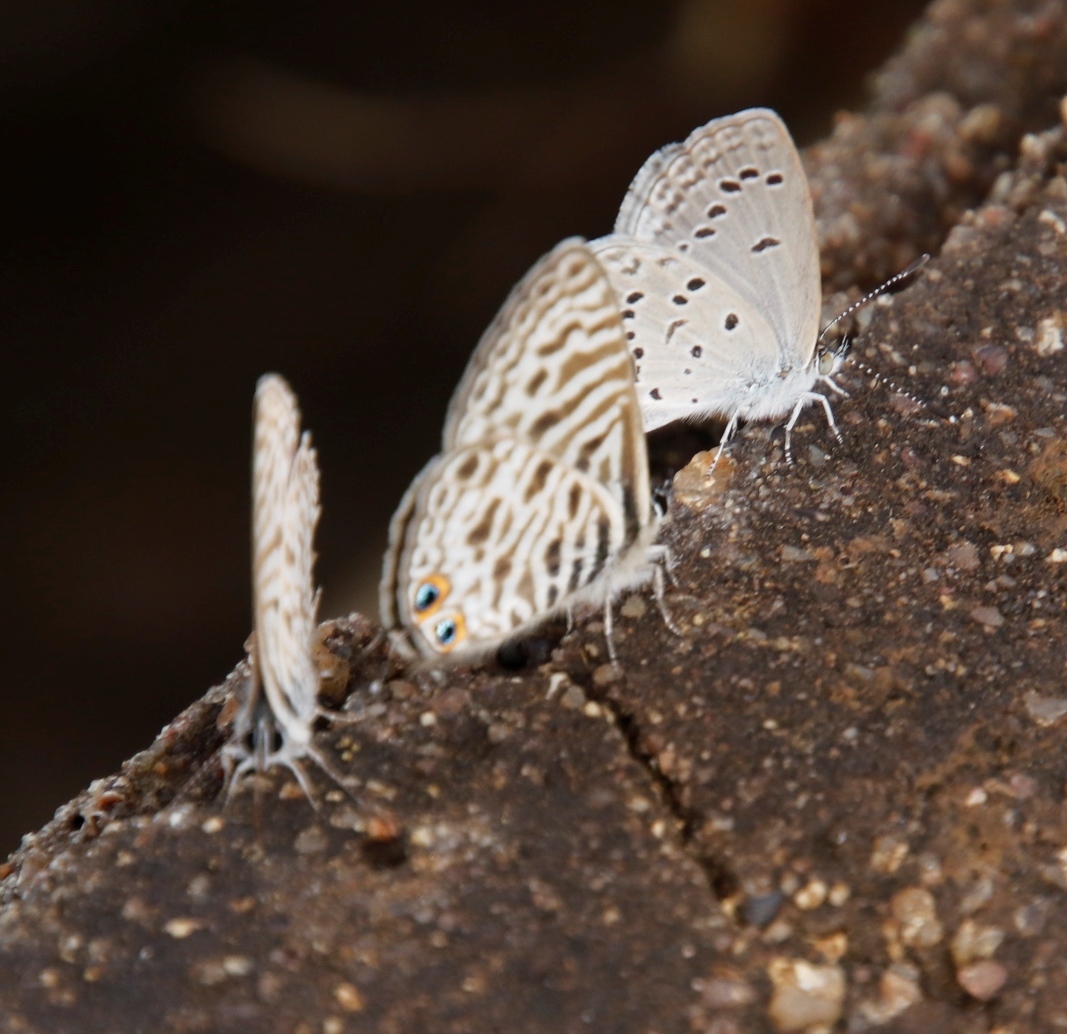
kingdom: Animalia
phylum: Arthropoda
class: Insecta
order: Lepidoptera
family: Lycaenidae
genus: Leptotes
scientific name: Leptotes
